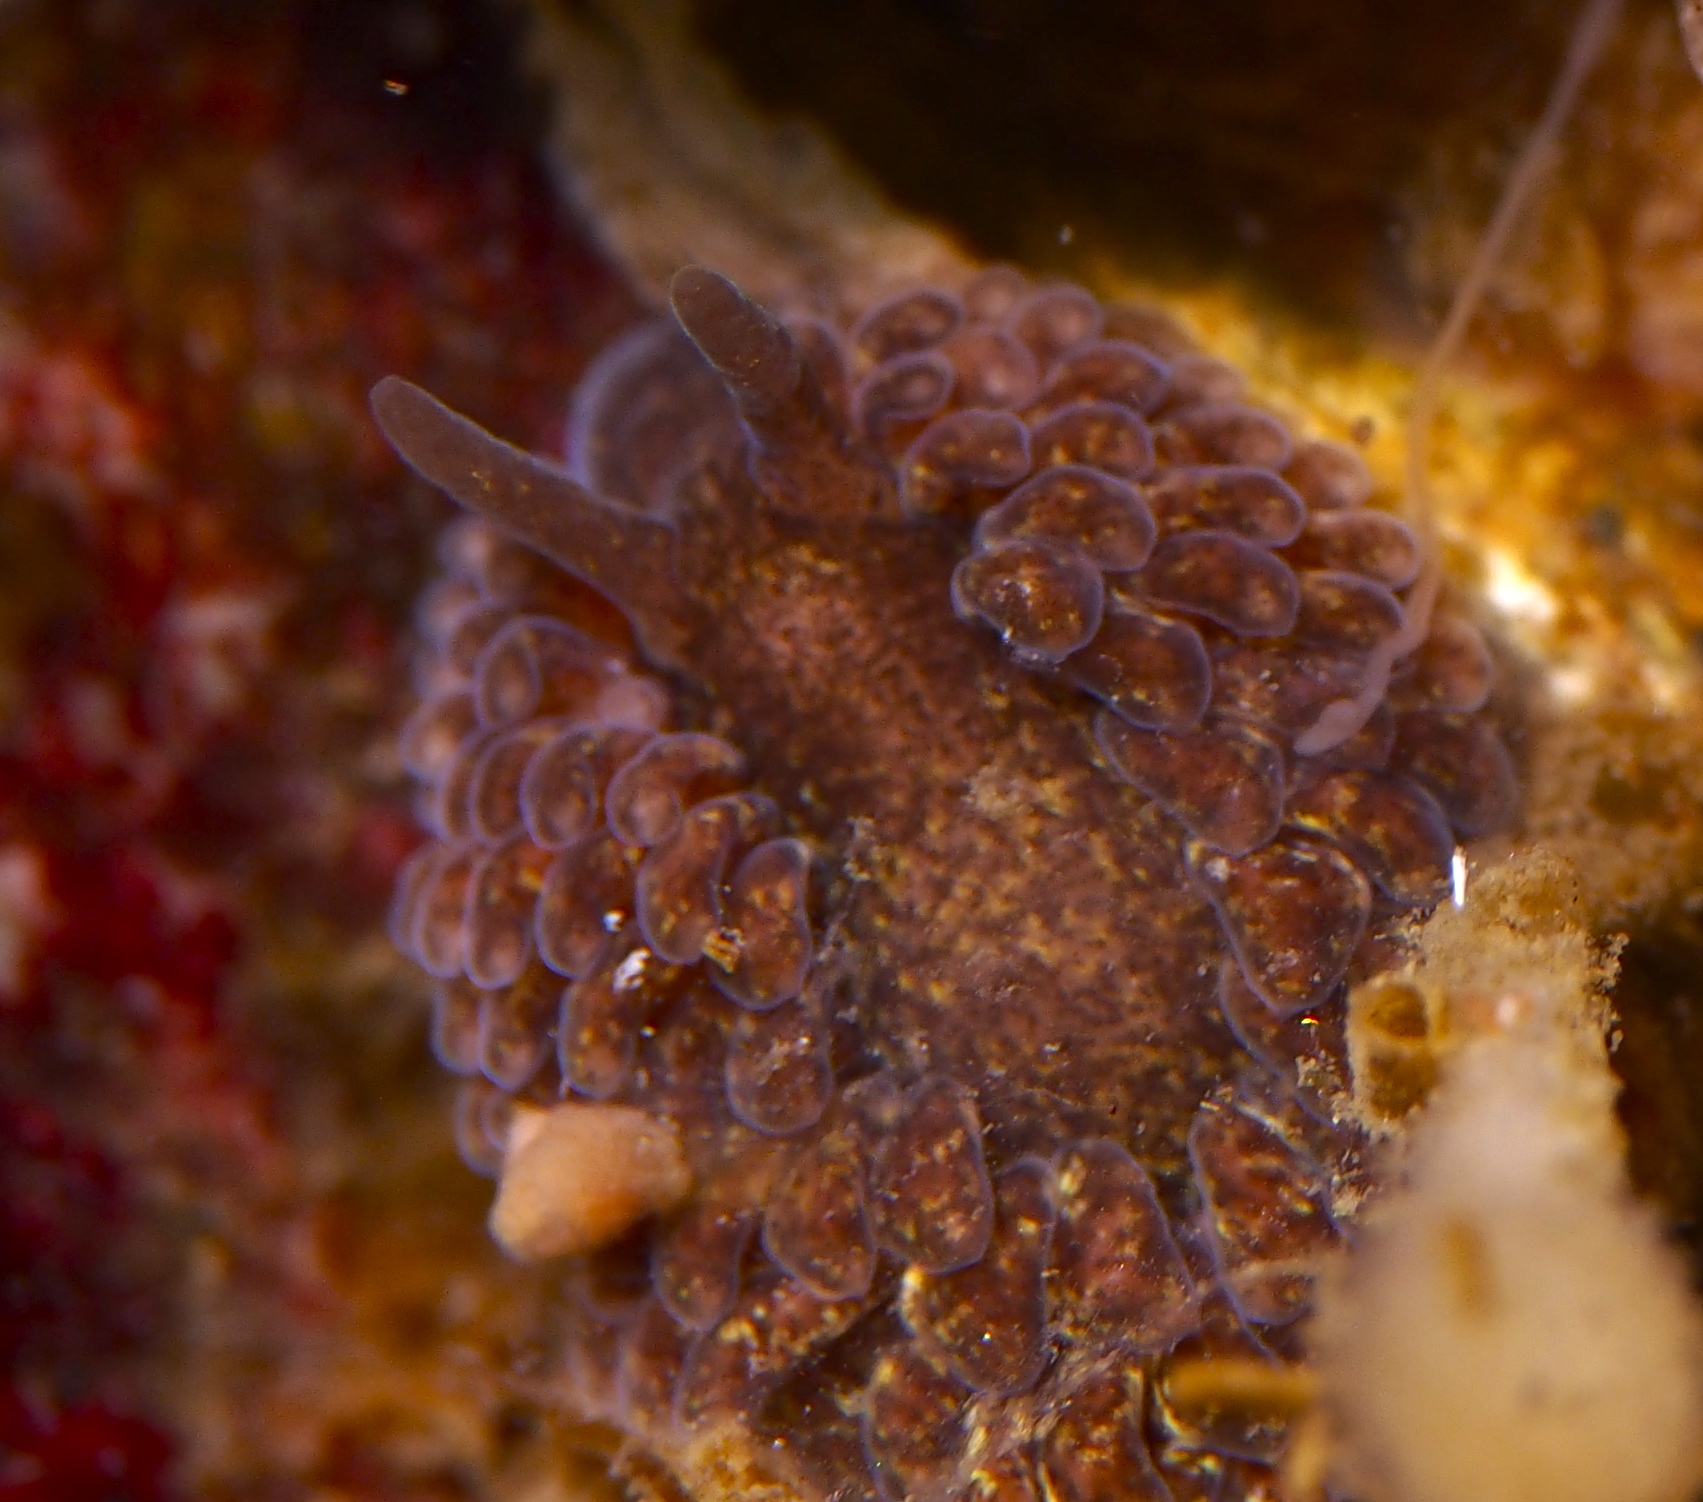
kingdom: Animalia
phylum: Mollusca
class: Gastropoda
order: Nudibranchia
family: Aeolidiidae
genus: Aeolidia
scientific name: Aeolidia papillosa
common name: Common grey sea slug
